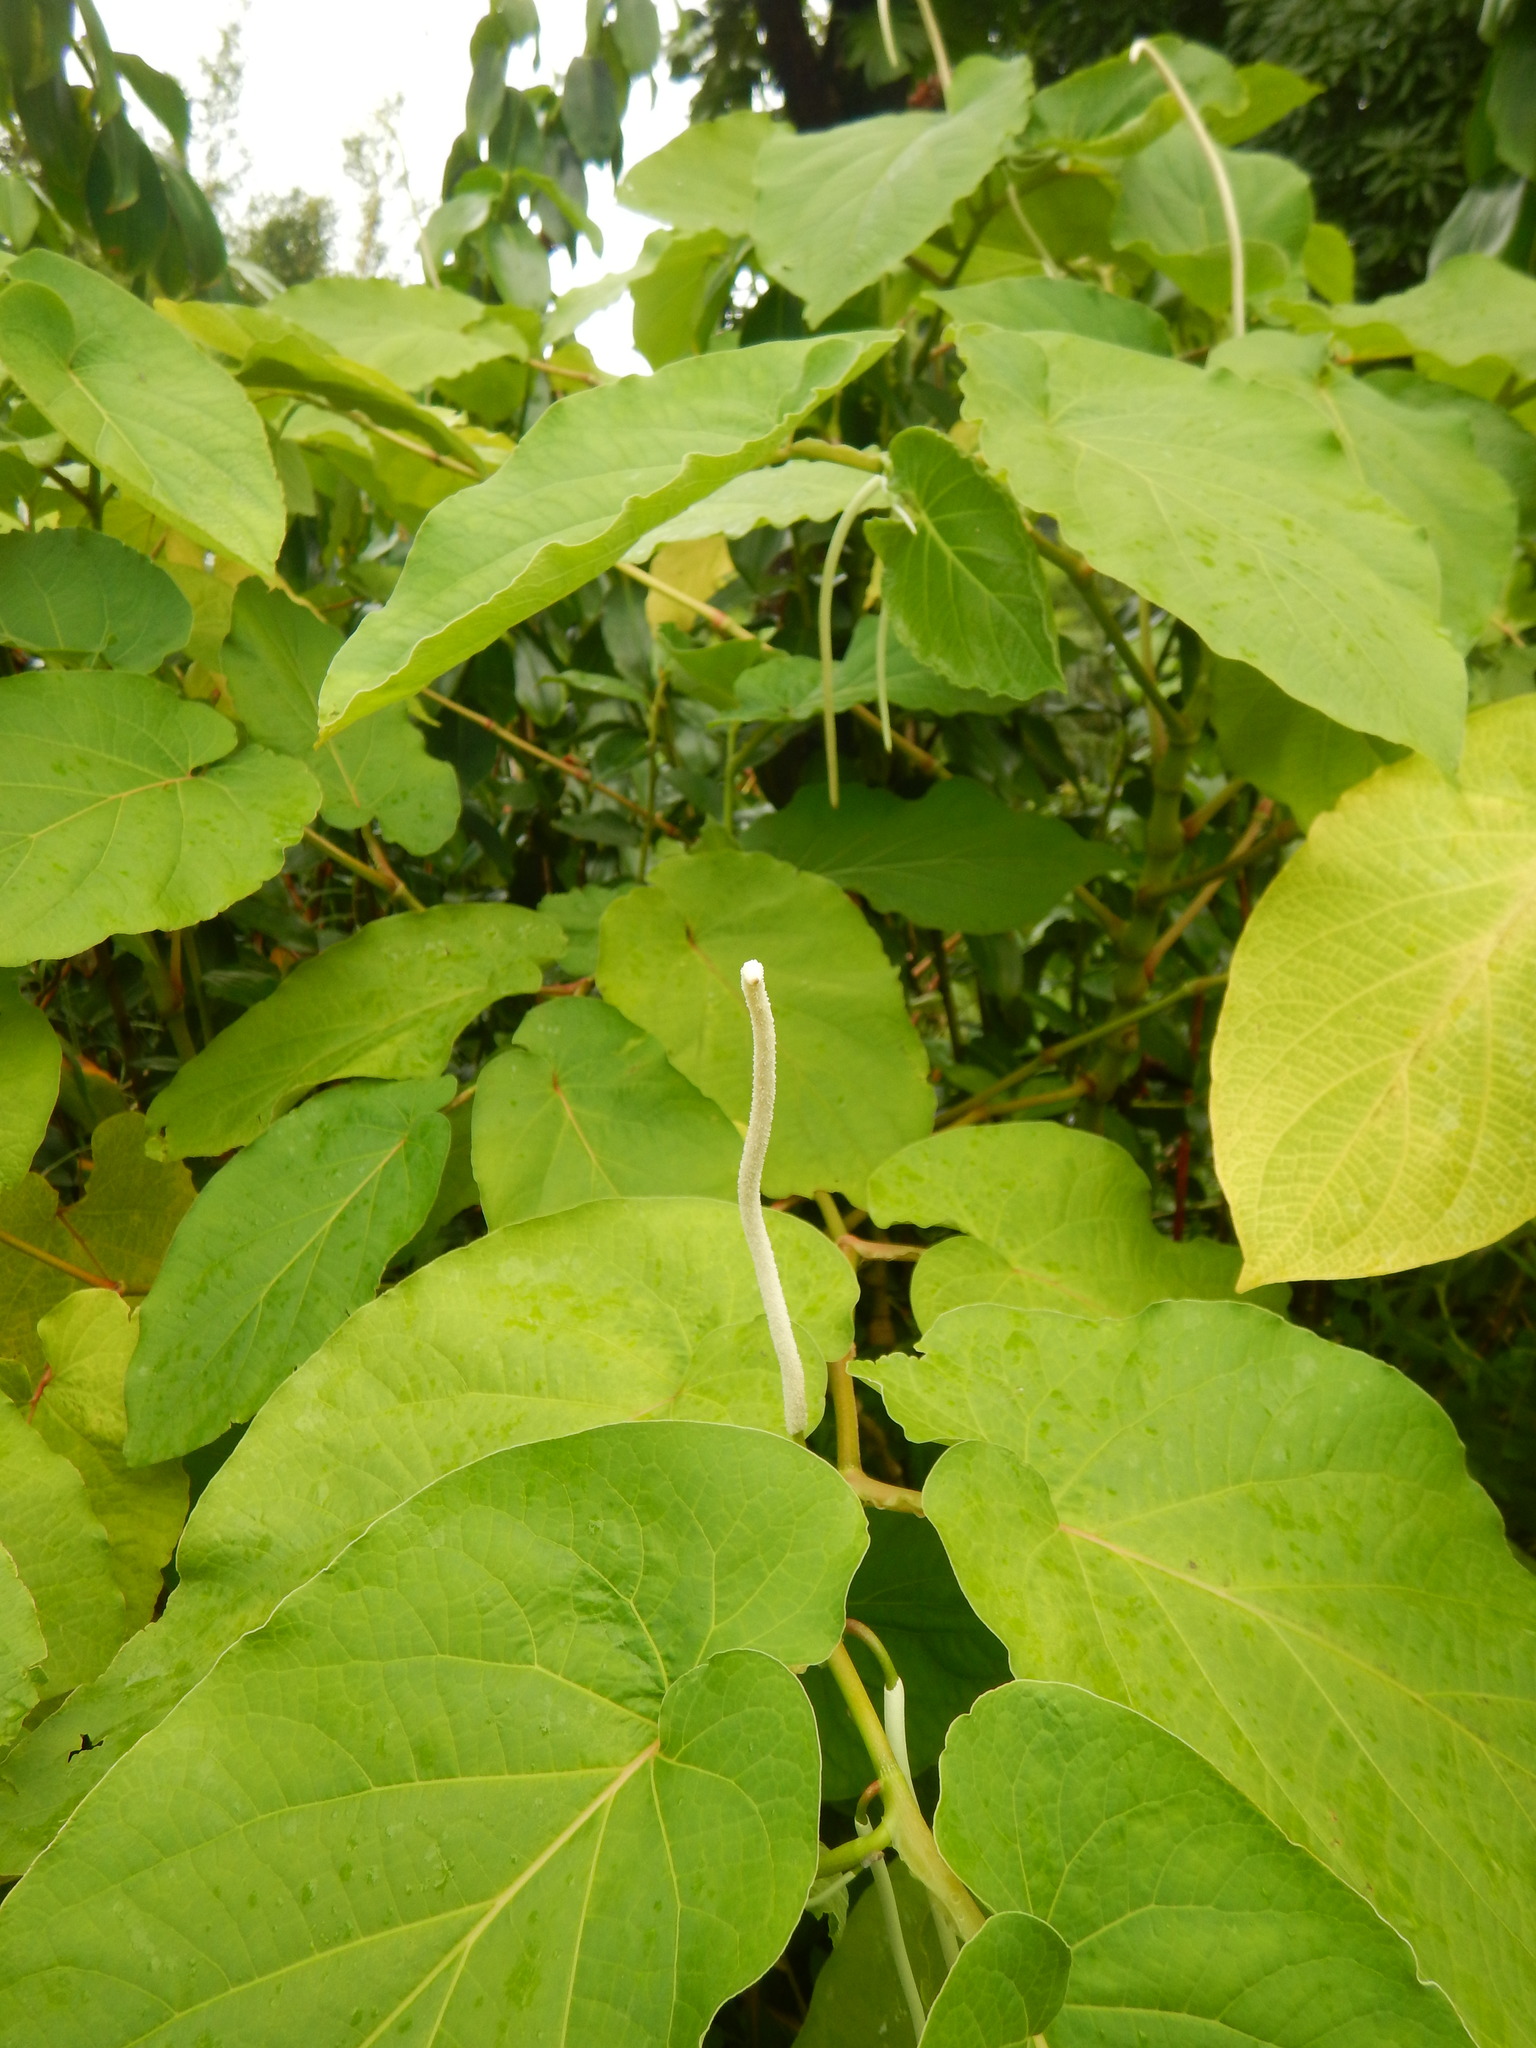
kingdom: Plantae
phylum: Tracheophyta
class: Magnoliopsida
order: Piperales
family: Piperaceae
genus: Piper
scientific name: Piper auritum
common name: Vera cruz pepper
